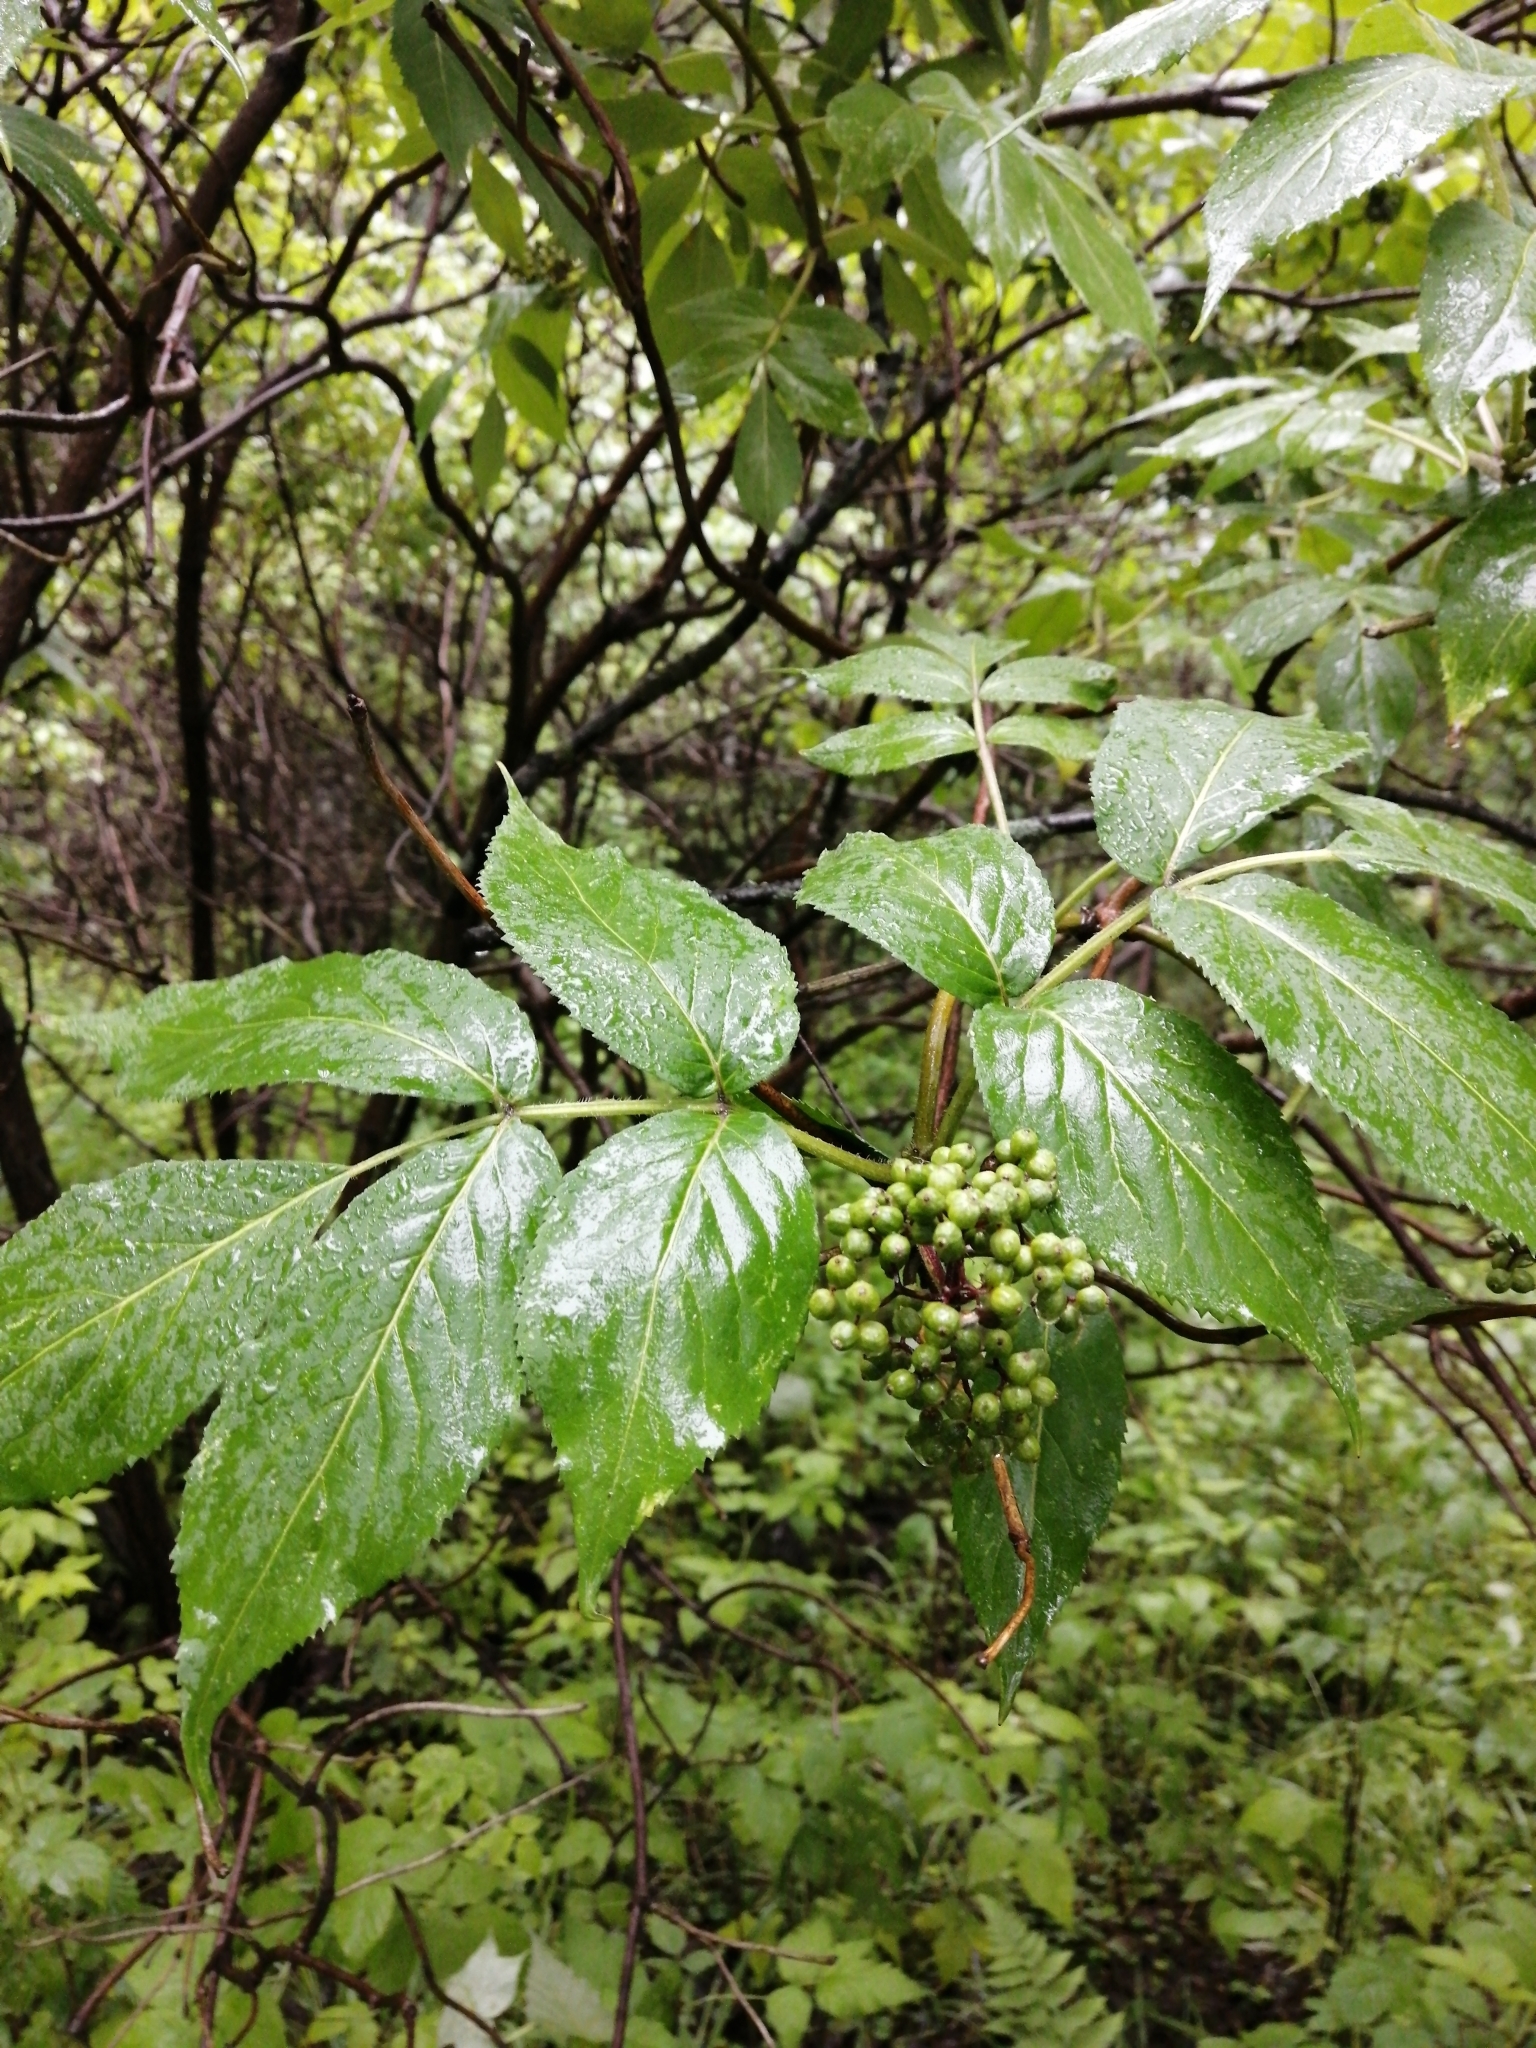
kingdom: Plantae
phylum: Tracheophyta
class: Magnoliopsida
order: Dipsacales
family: Viburnaceae
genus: Sambucus
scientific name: Sambucus sibirica
